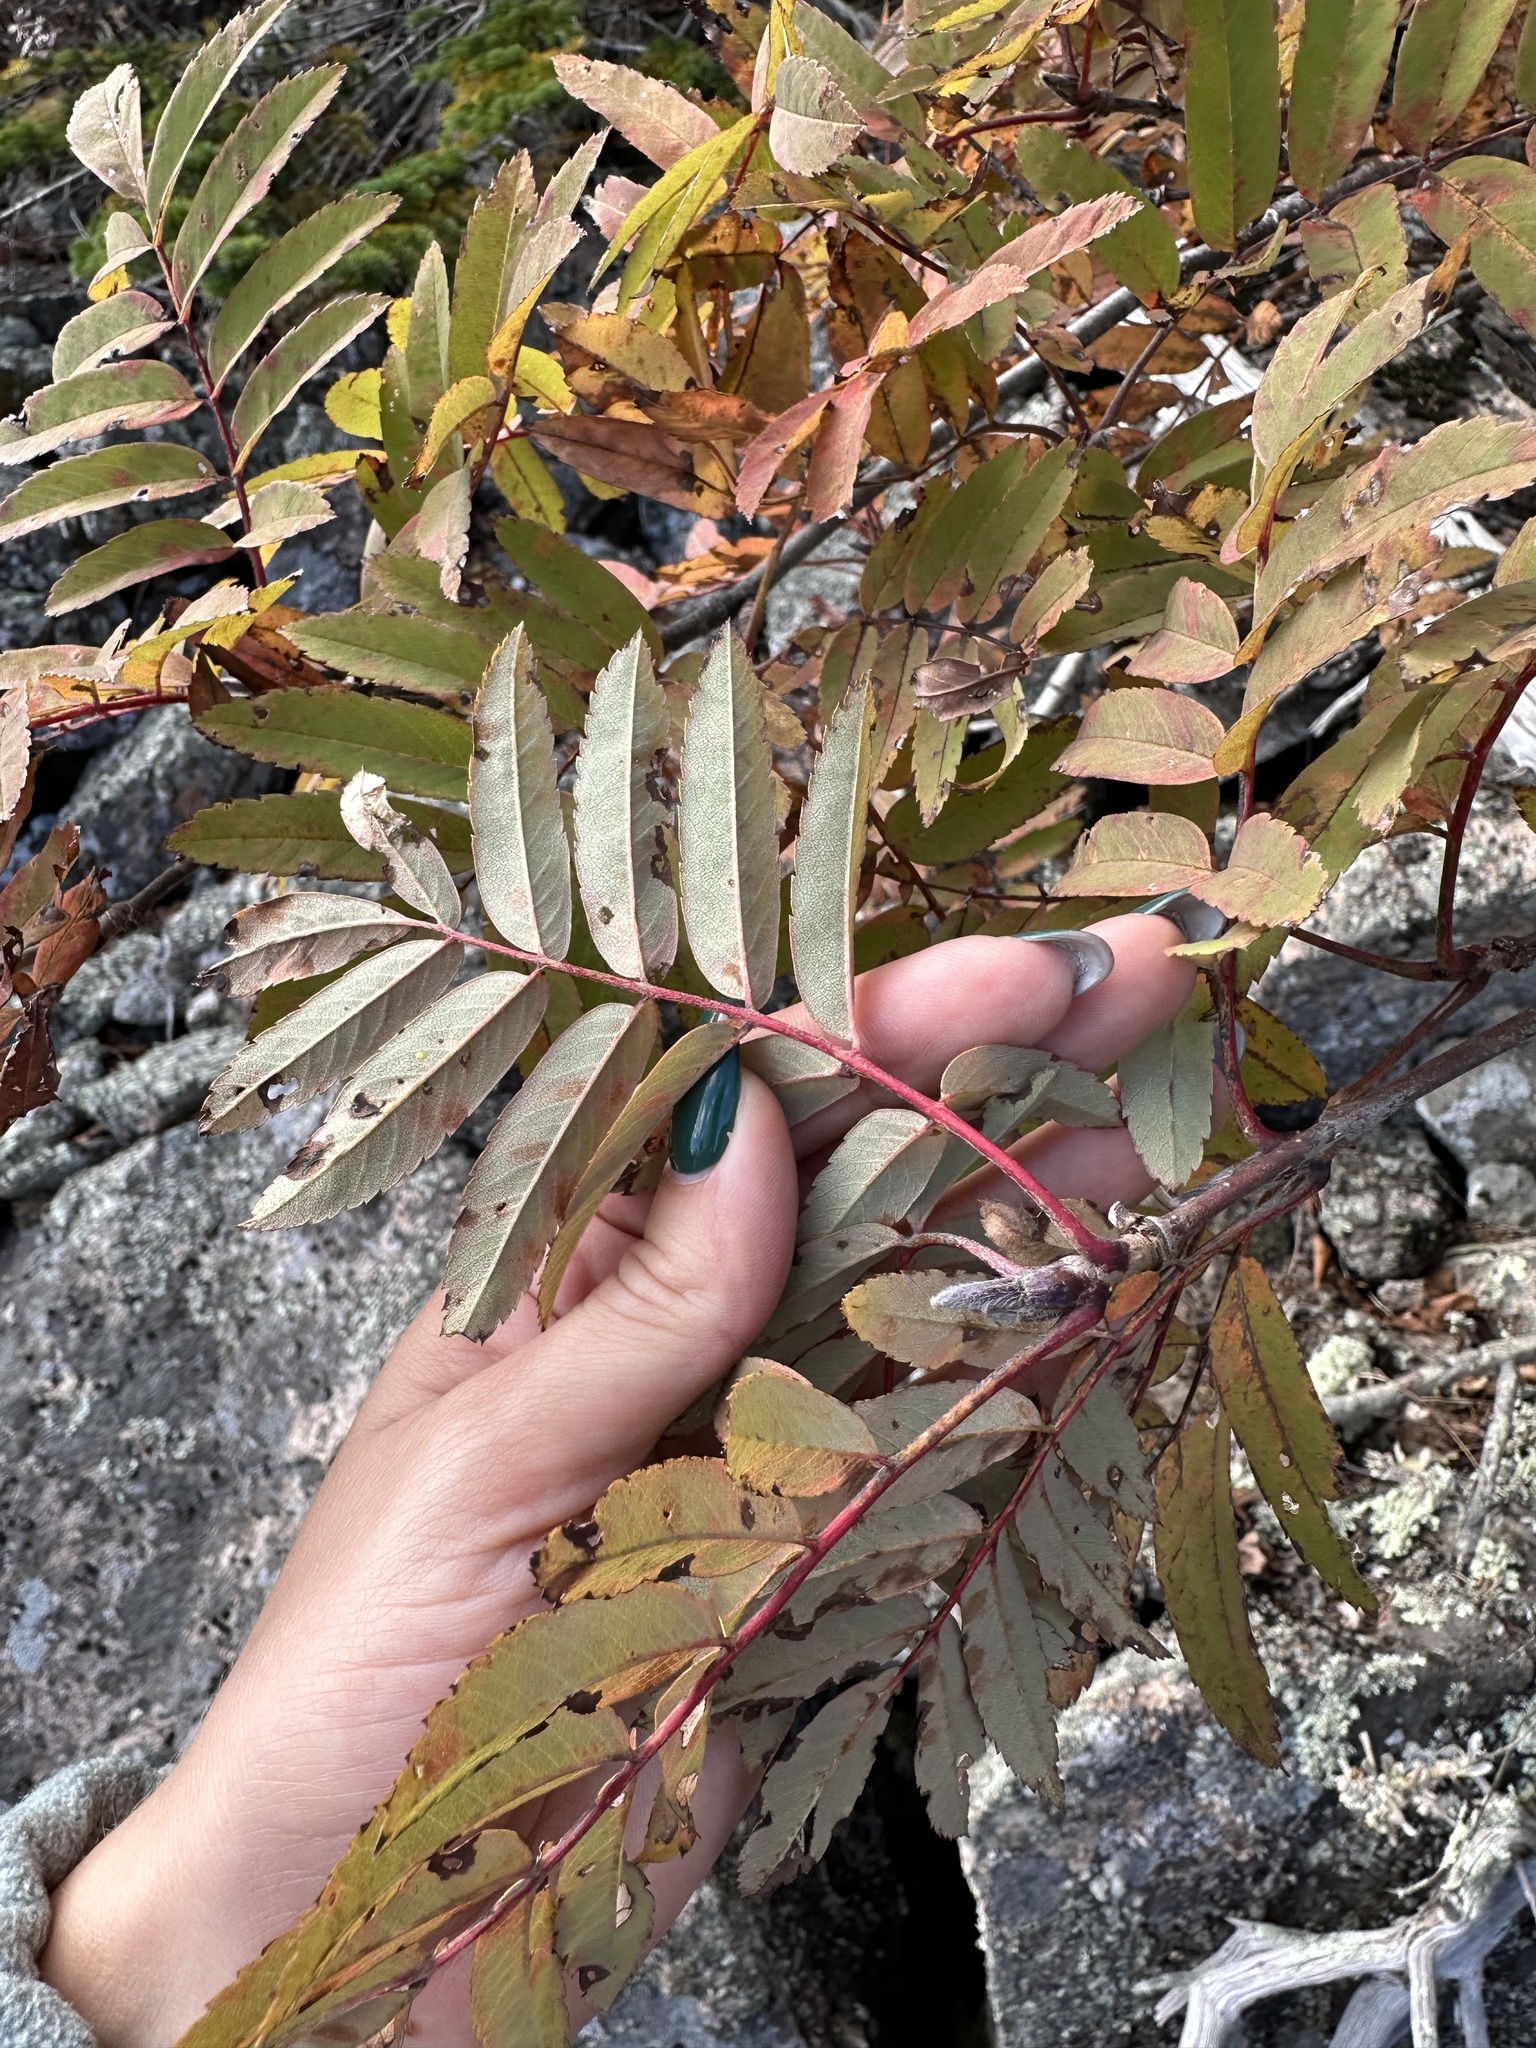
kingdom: Plantae
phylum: Tracheophyta
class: Magnoliopsida
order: Rosales
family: Rosaceae
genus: Sorbus
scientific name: Sorbus aucuparia
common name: Rowan
